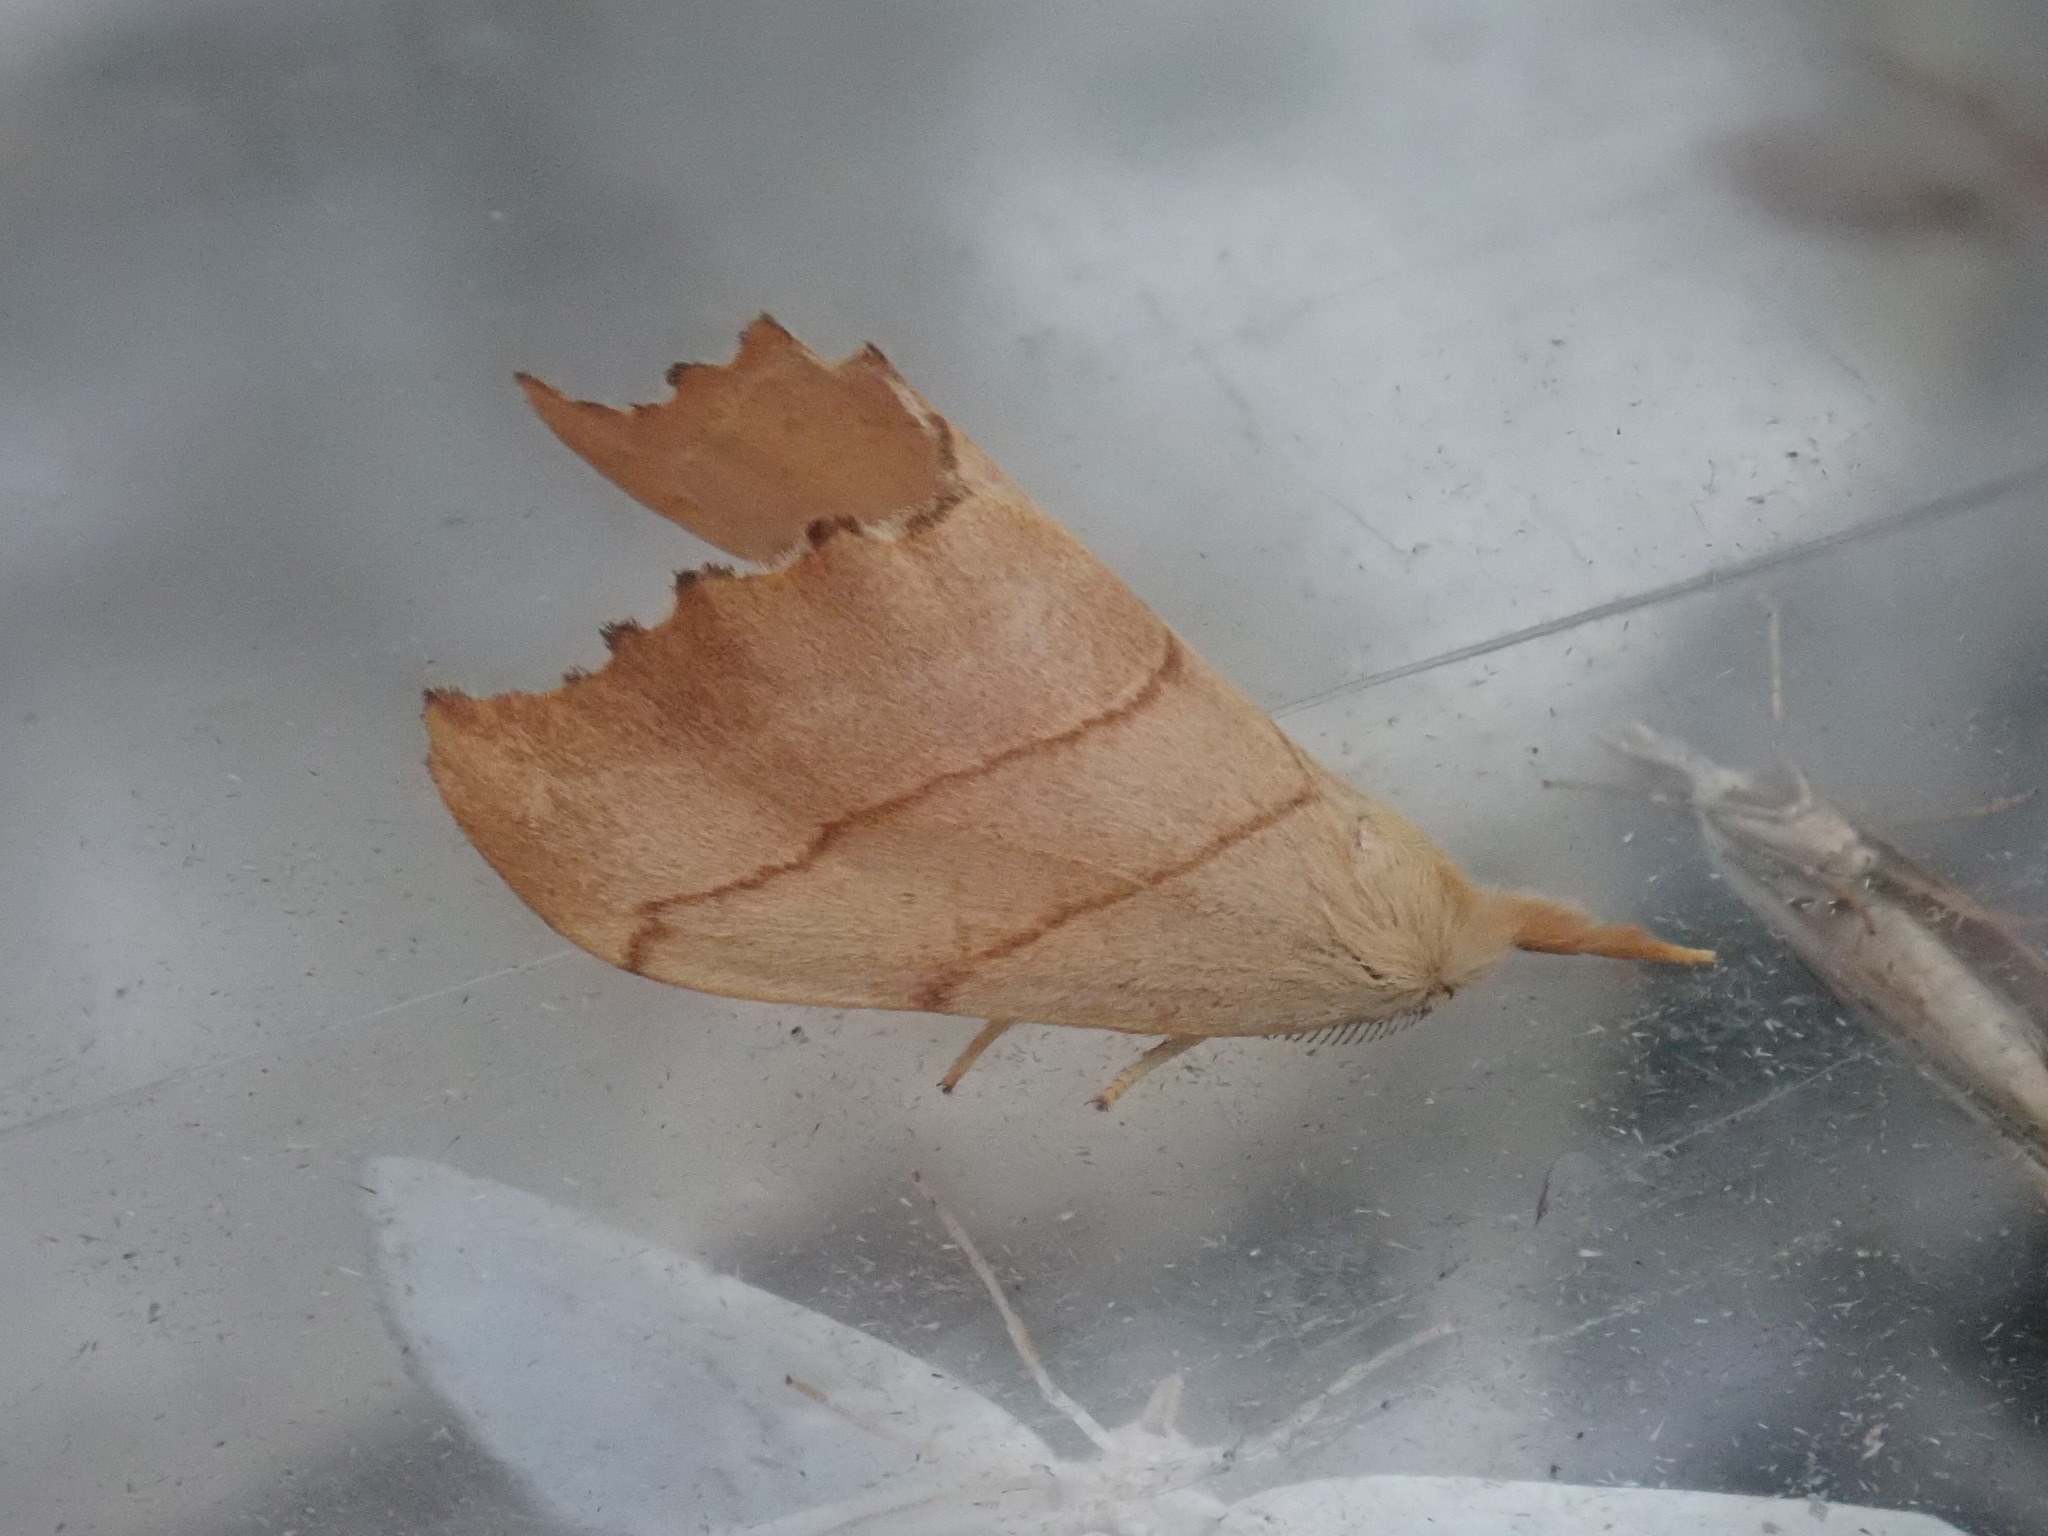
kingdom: Animalia
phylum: Arthropoda
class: Insecta
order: Lepidoptera
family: Drepanidae
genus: Falcaria
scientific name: Falcaria bilineata
